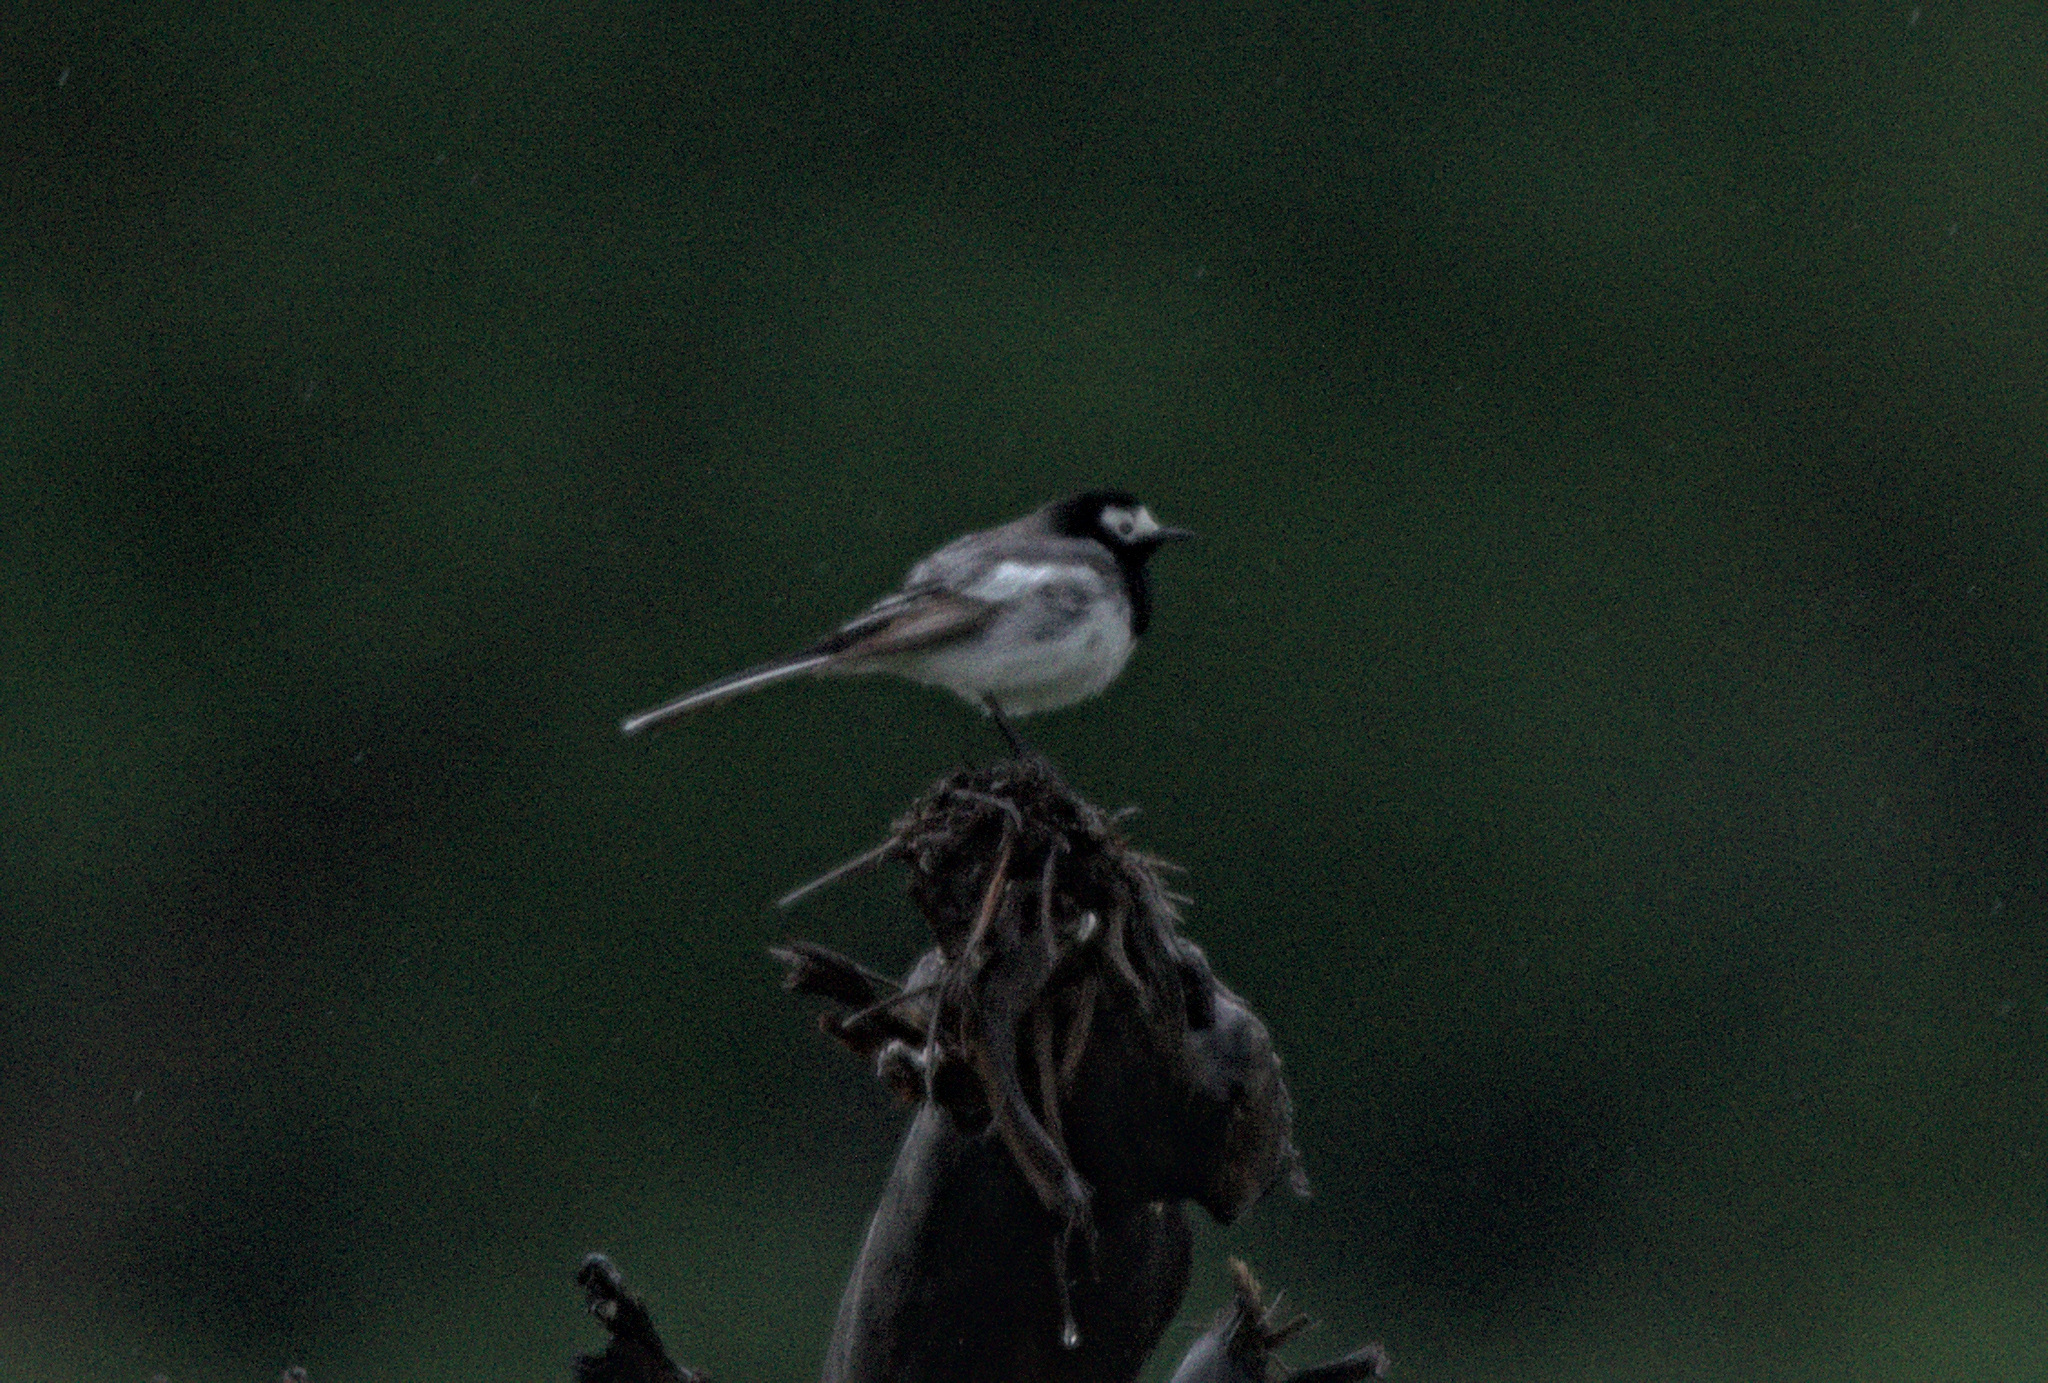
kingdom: Animalia
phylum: Chordata
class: Aves
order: Passeriformes
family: Motacillidae
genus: Motacilla
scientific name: Motacilla alba
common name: White wagtail
